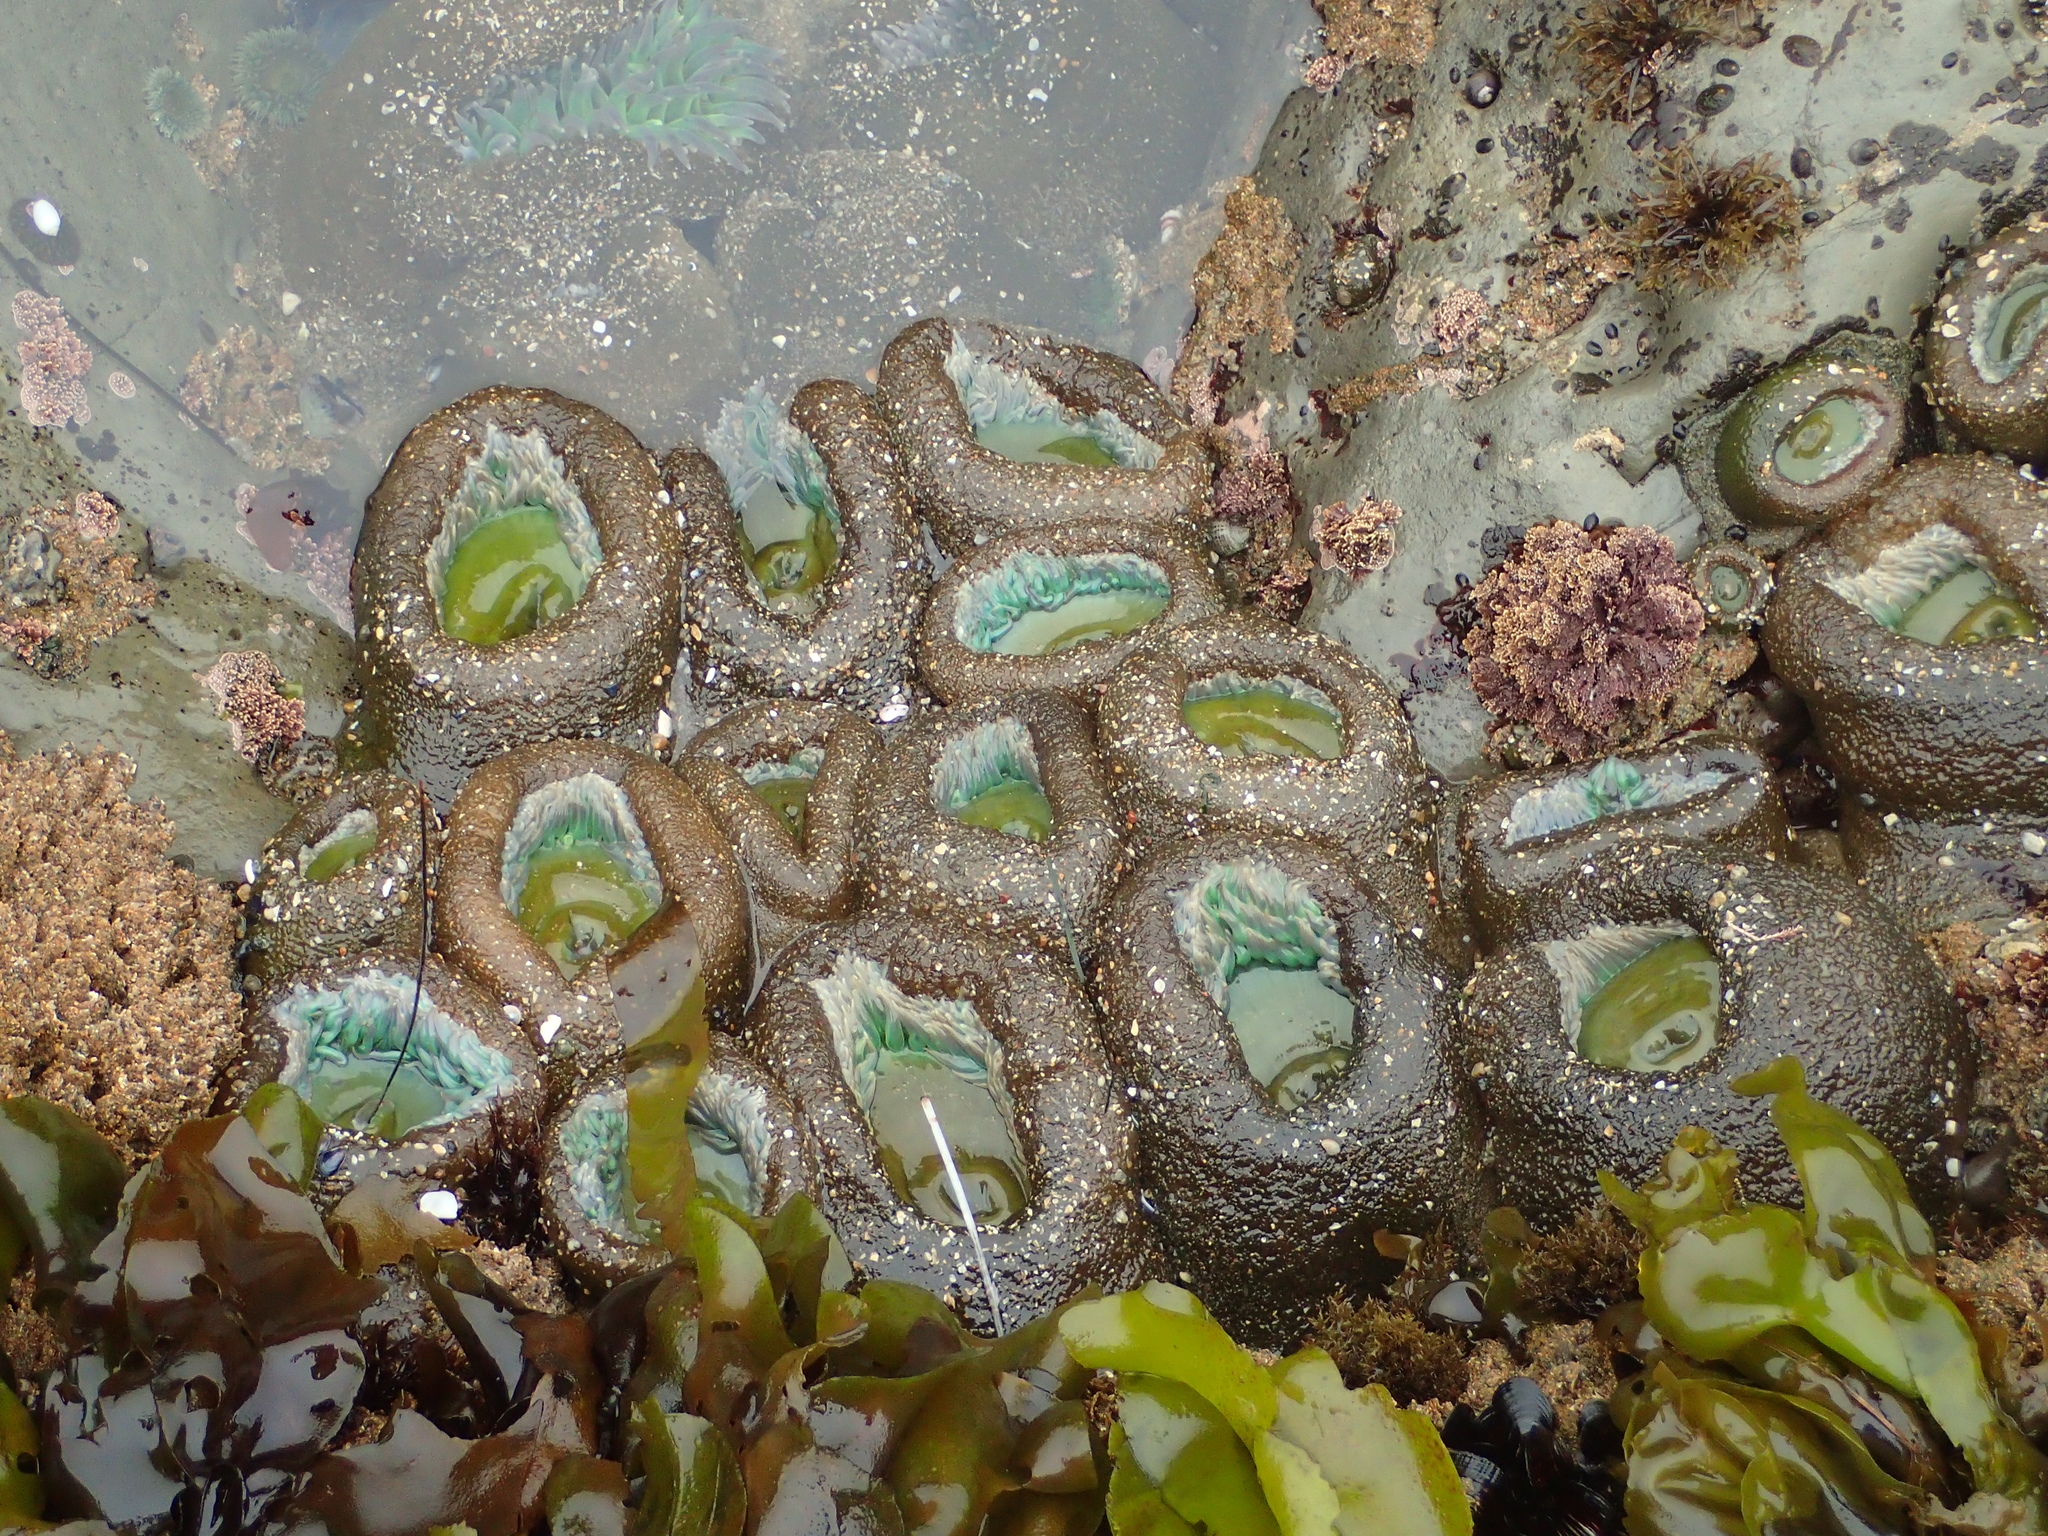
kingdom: Animalia
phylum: Cnidaria
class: Anthozoa
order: Actiniaria
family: Actiniidae
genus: Anthopleura
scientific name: Anthopleura xanthogrammica
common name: Giant green anemone
